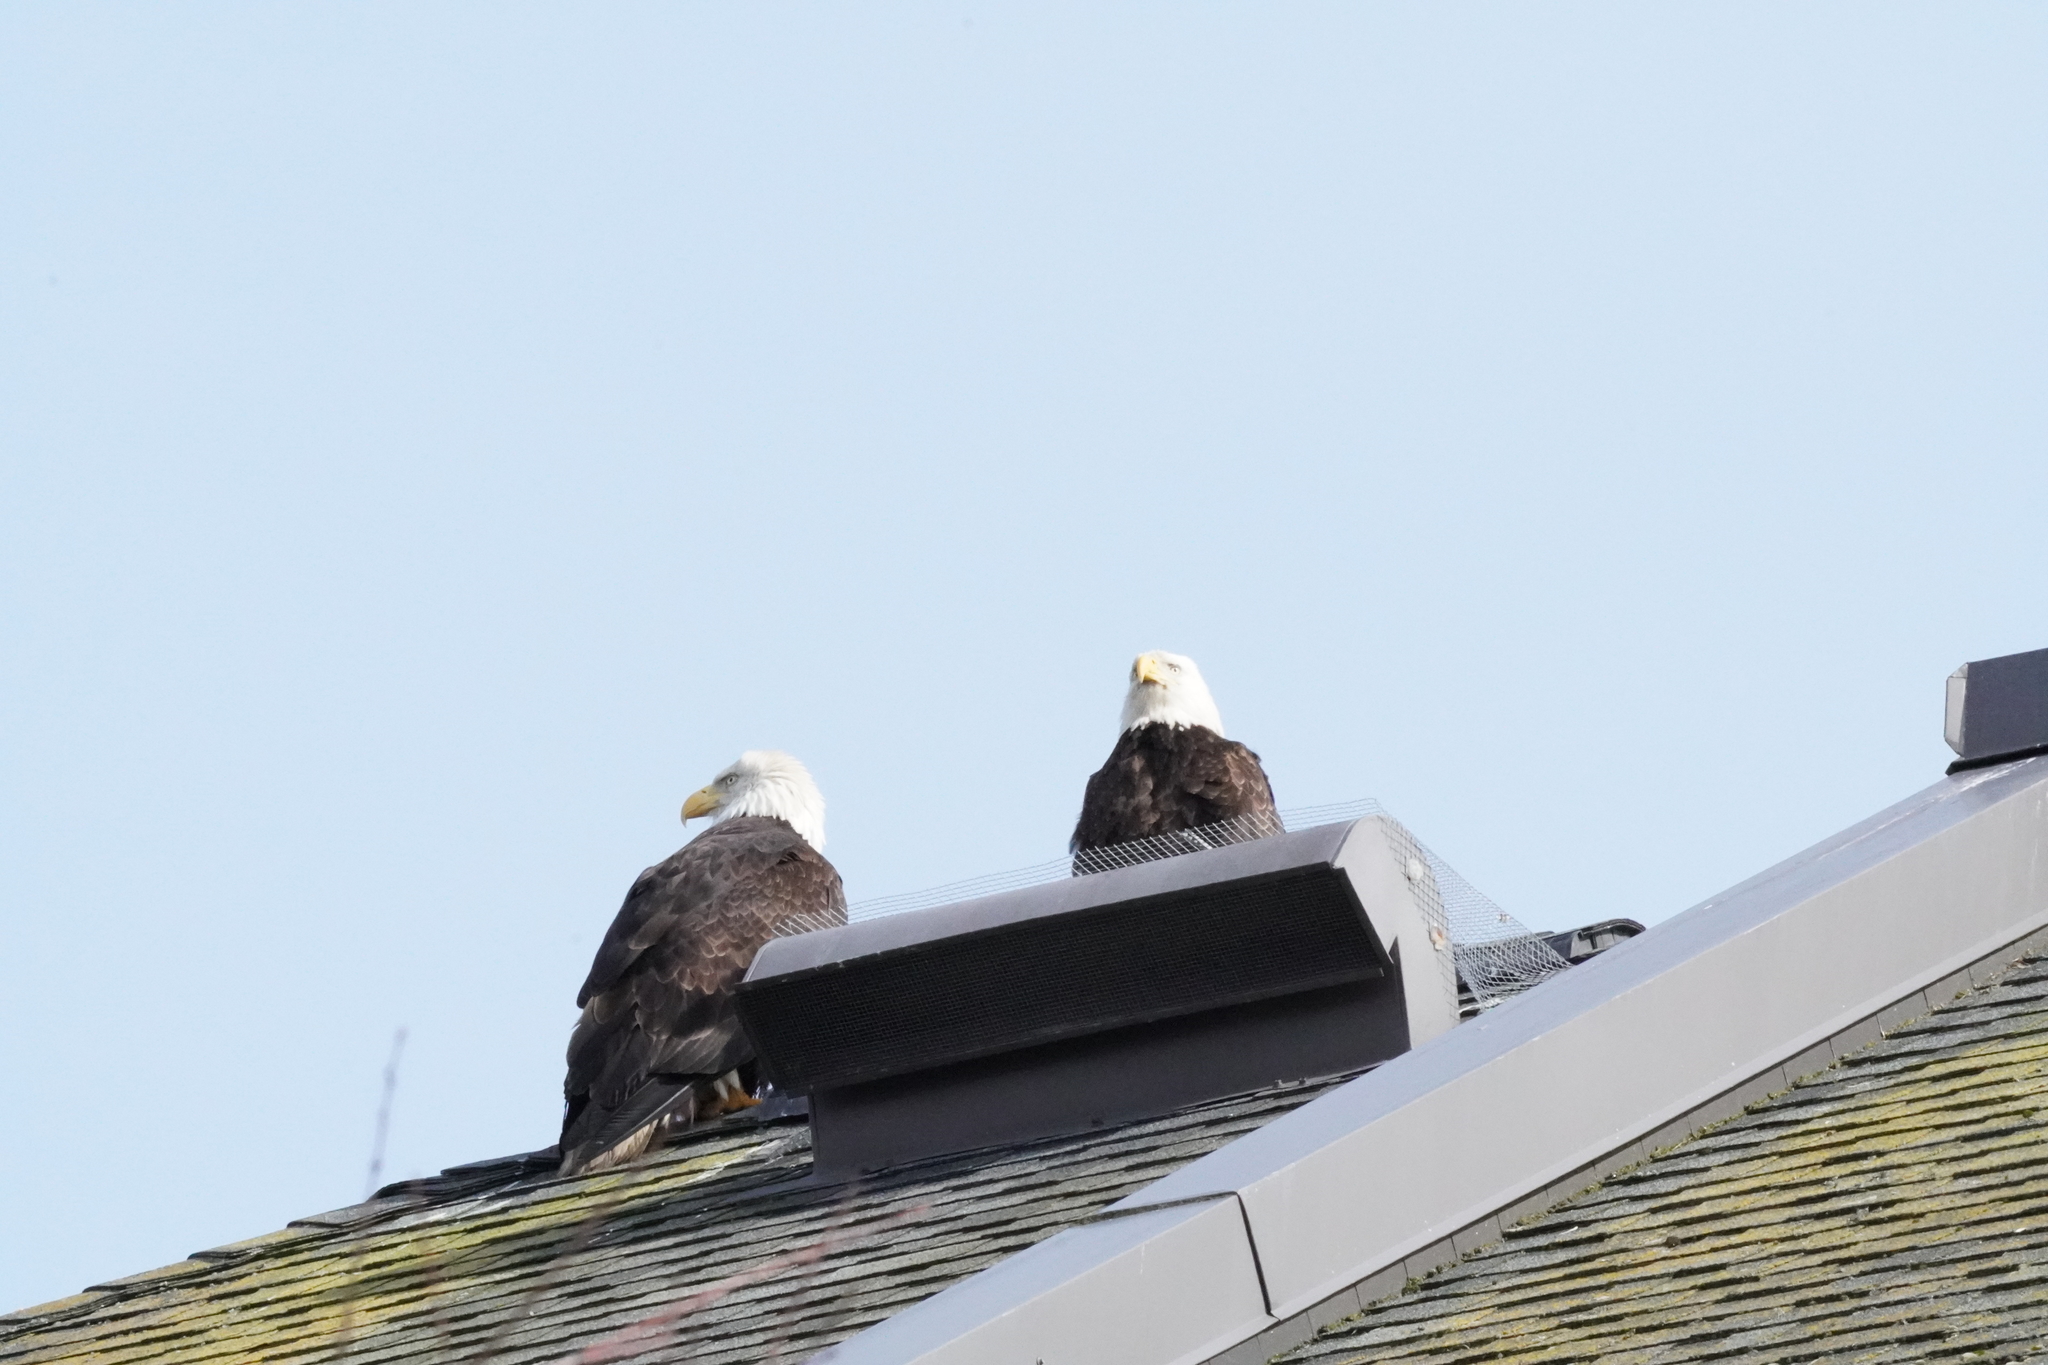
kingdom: Animalia
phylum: Chordata
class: Aves
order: Accipitriformes
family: Accipitridae
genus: Haliaeetus
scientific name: Haliaeetus leucocephalus
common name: Bald eagle
